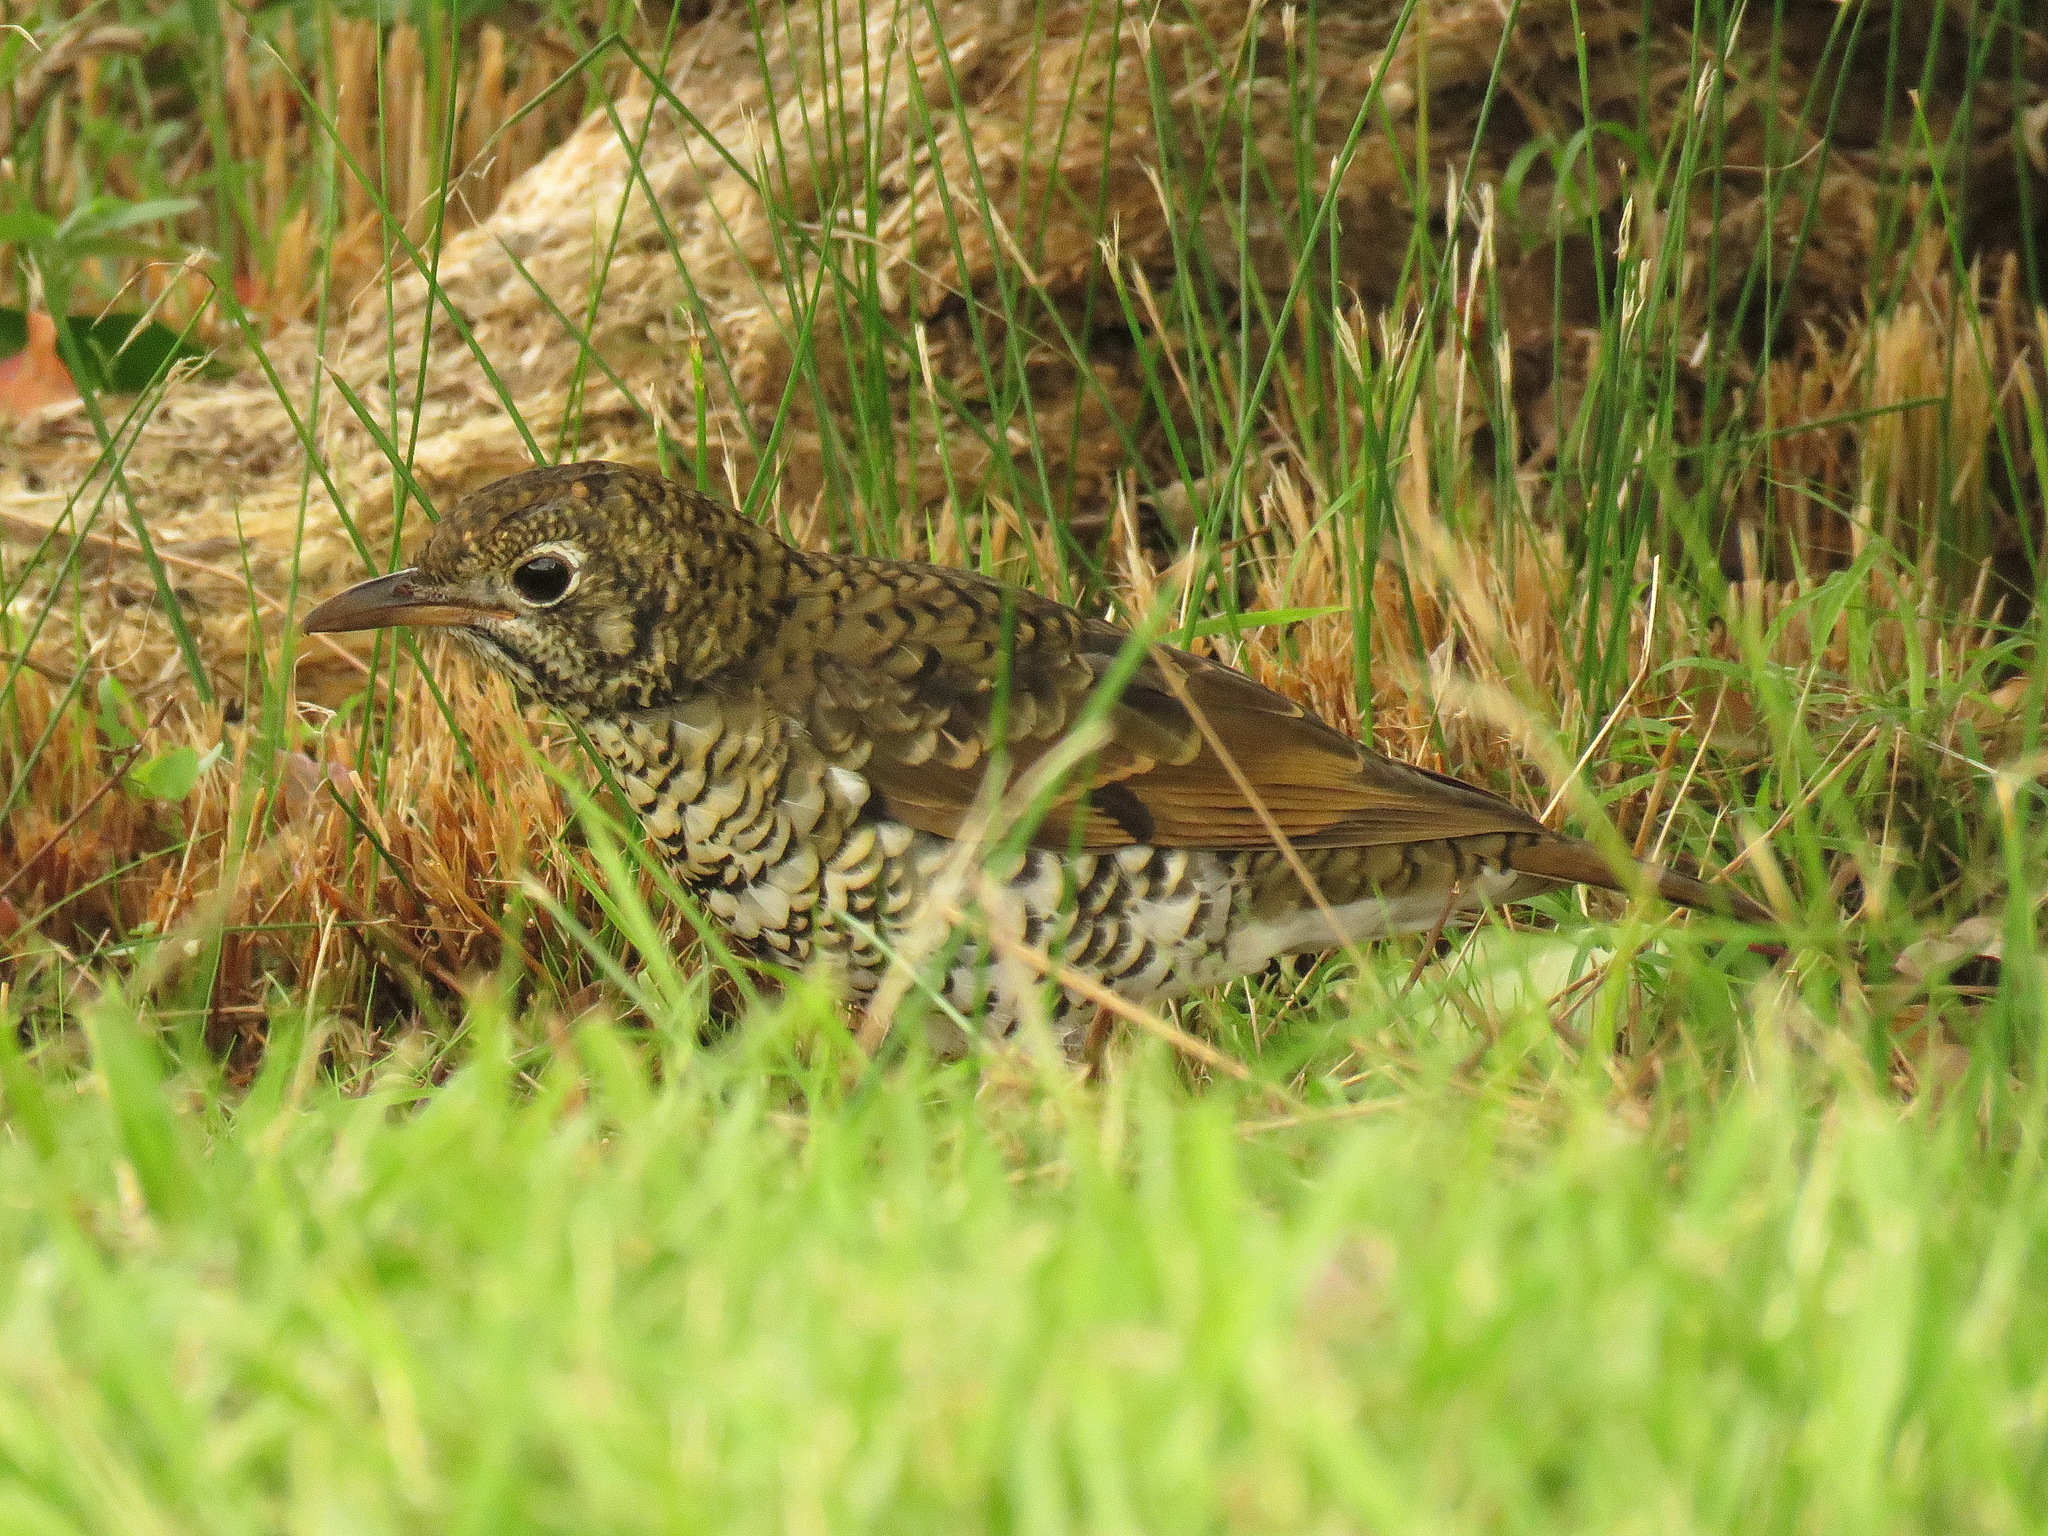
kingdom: Animalia
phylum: Chordata
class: Aves
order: Passeriformes
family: Turdidae
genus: Zoothera
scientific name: Zoothera lunulata
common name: Bassian thrush
